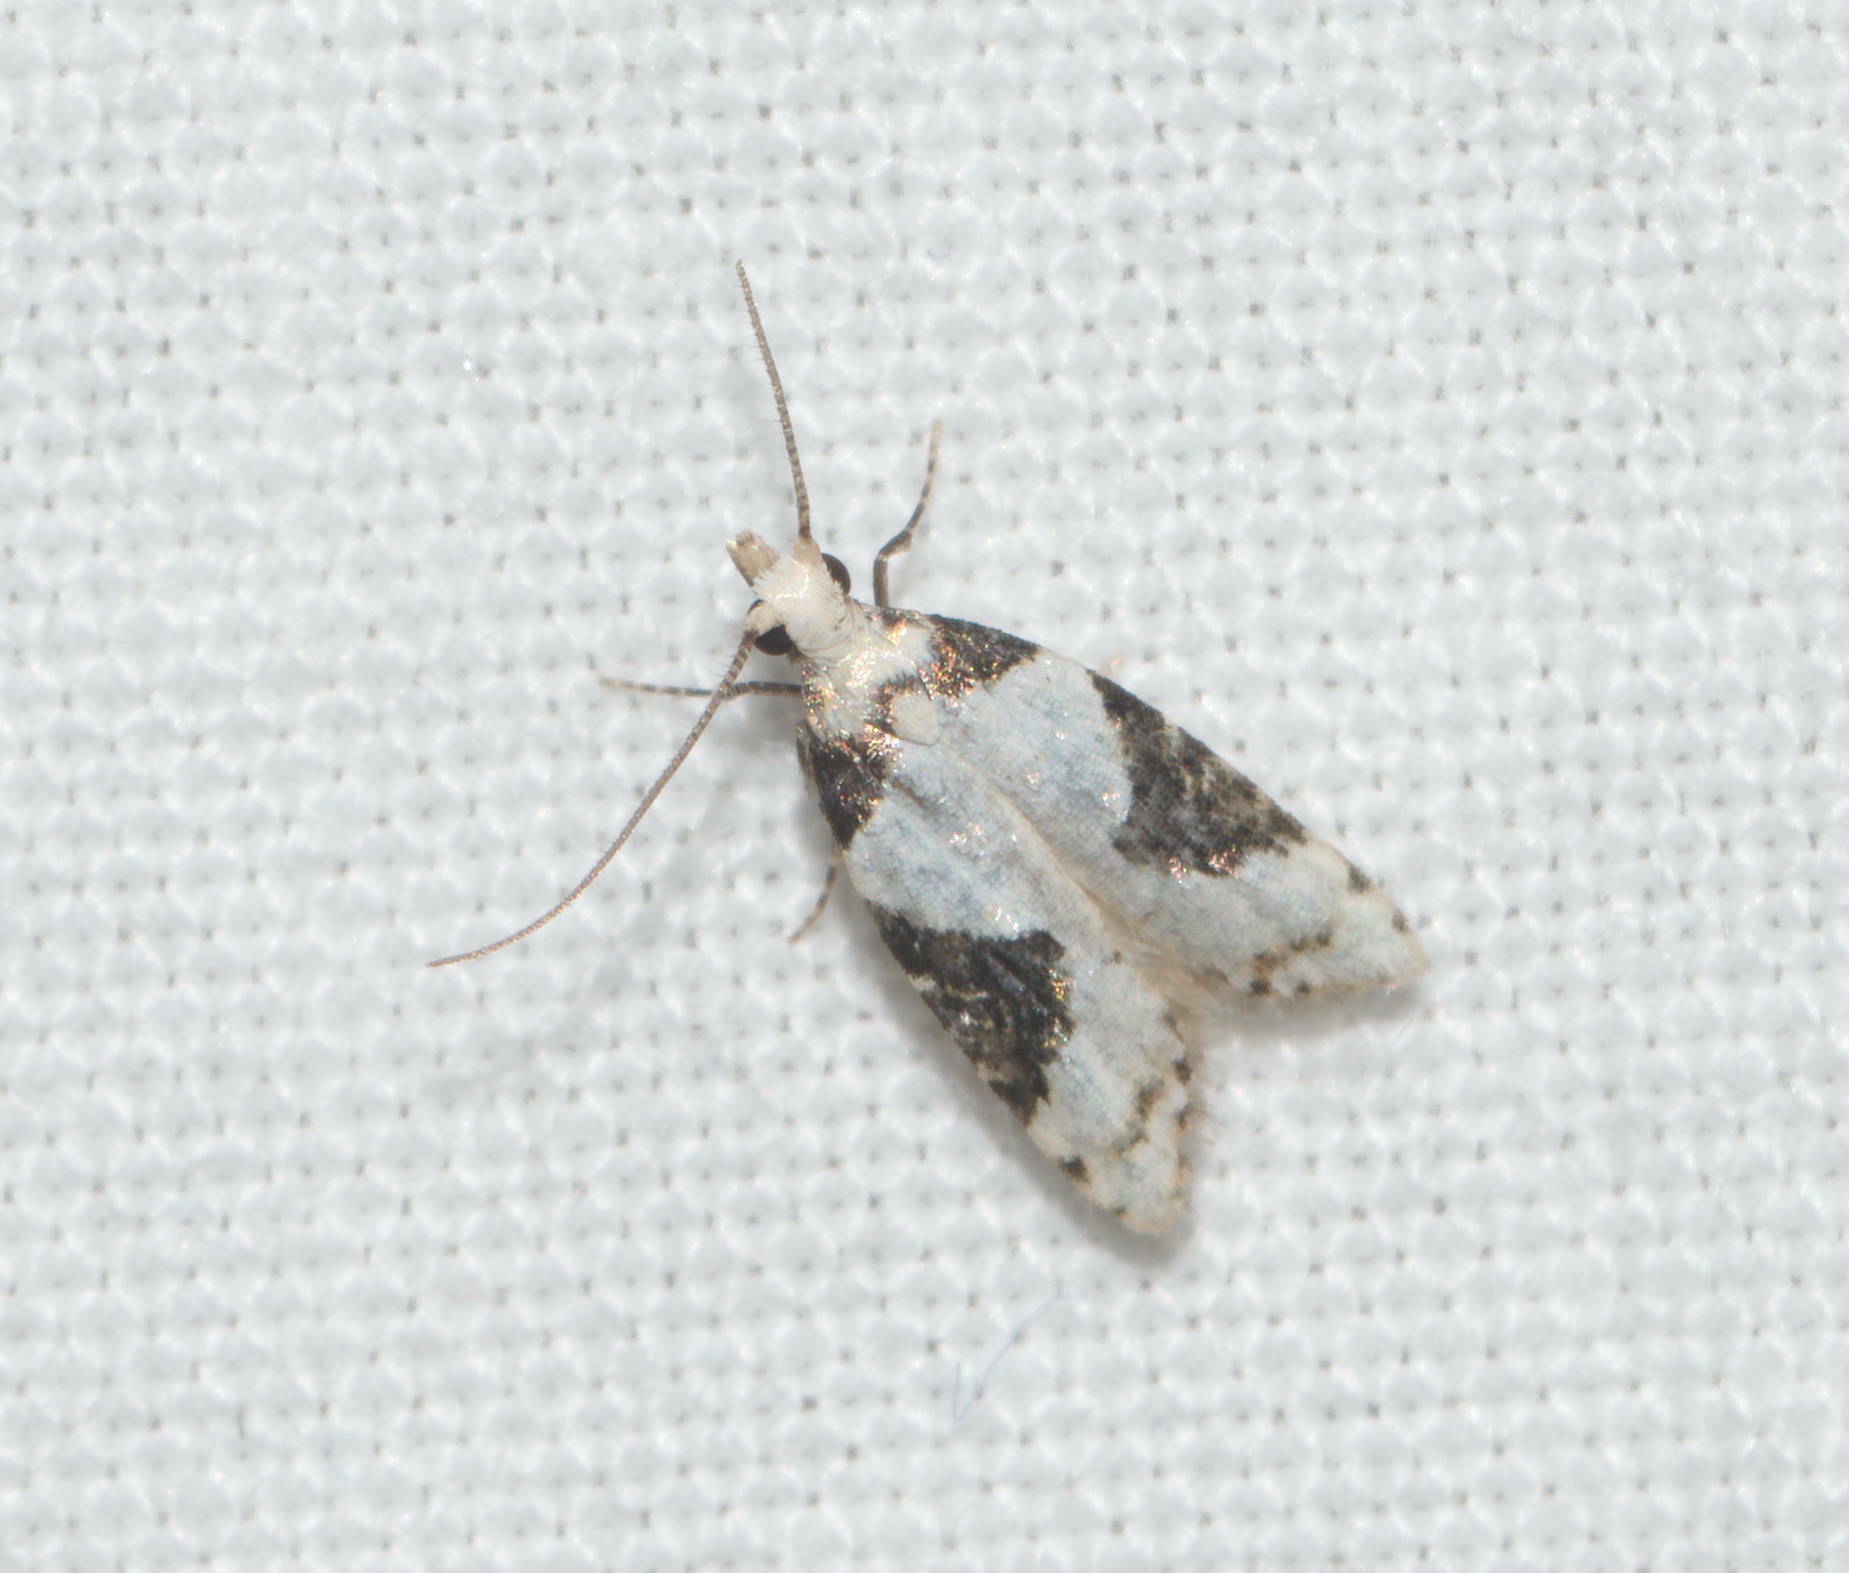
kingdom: Animalia
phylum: Arthropoda
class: Insecta
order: Lepidoptera
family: Carposinidae
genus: Carposina
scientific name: Carposina inscripta
